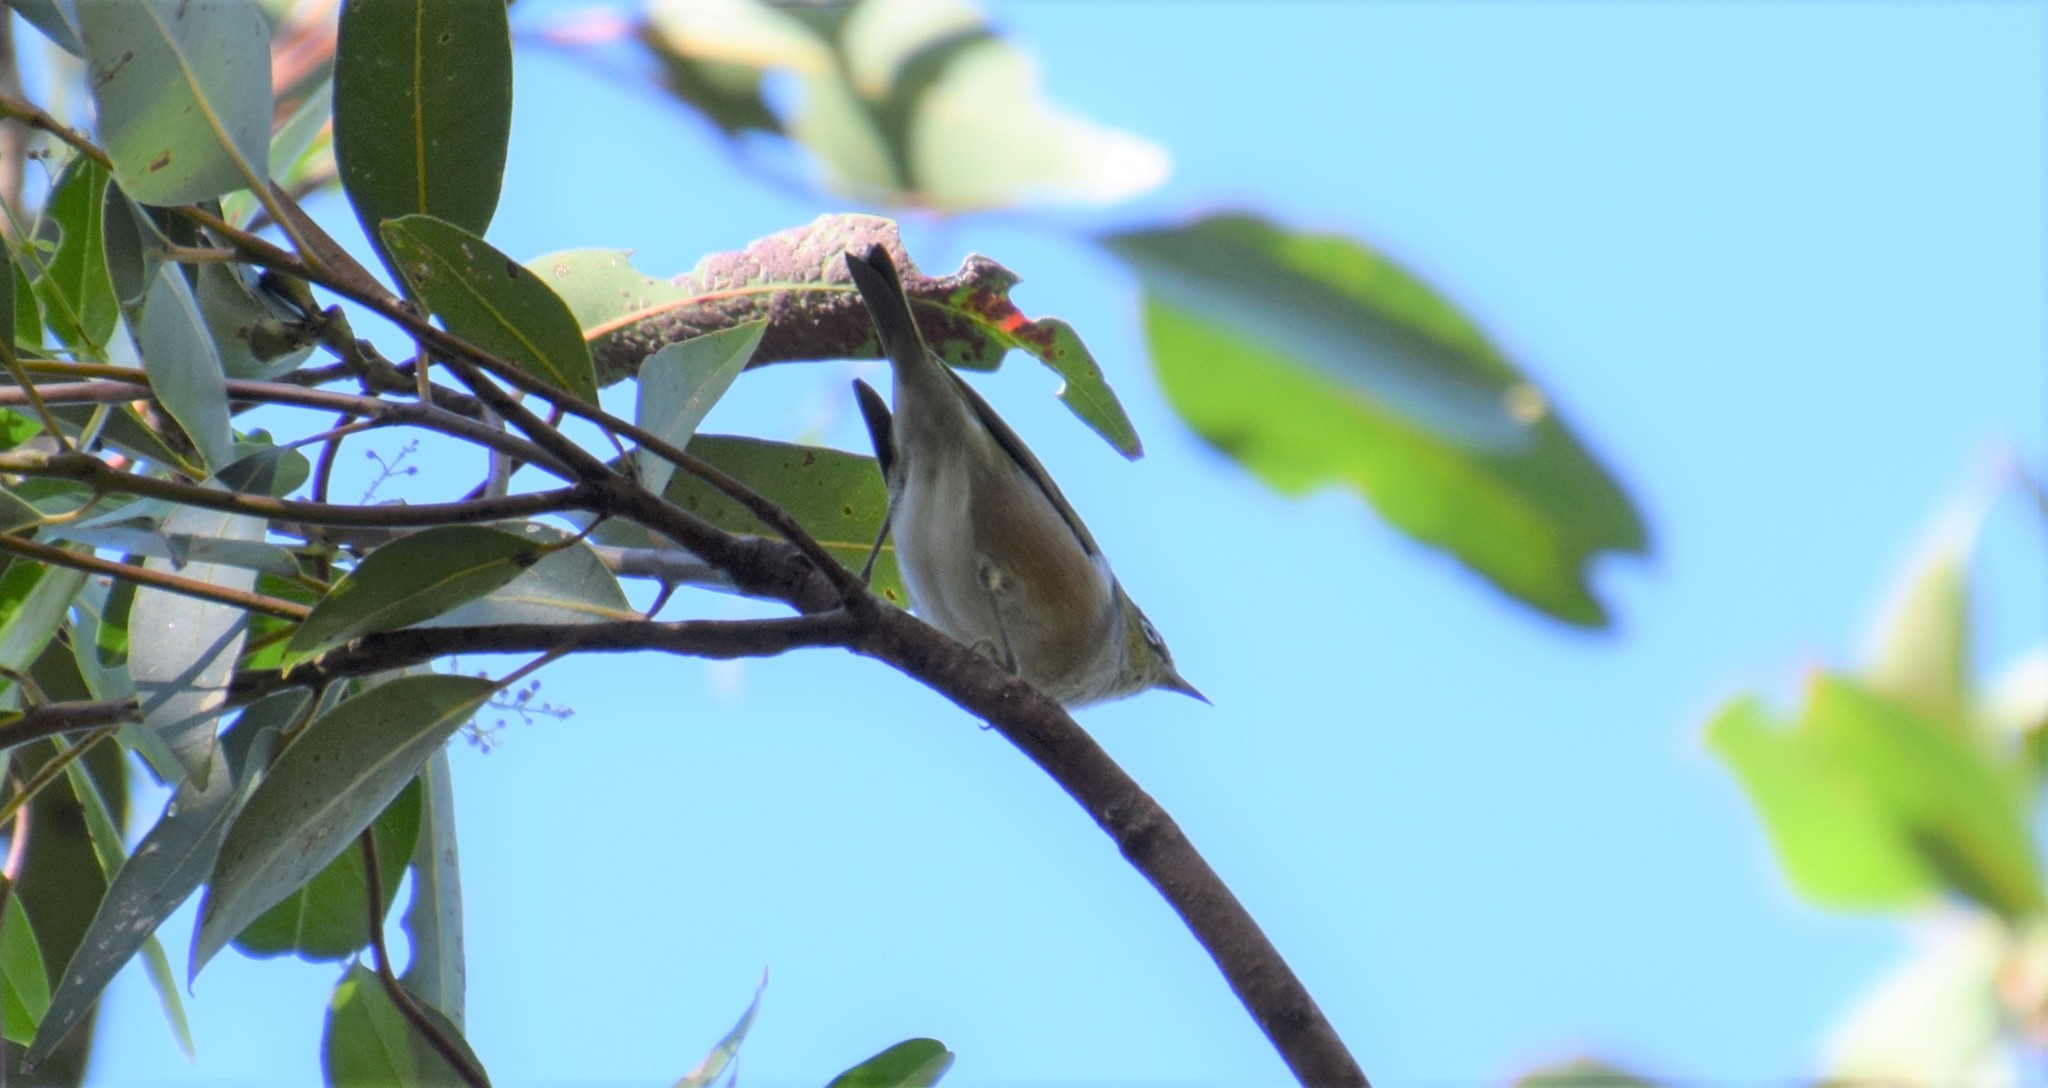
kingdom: Animalia
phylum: Chordata
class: Aves
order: Passeriformes
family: Zosteropidae
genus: Zosterops
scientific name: Zosterops lateralis
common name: Silvereye
